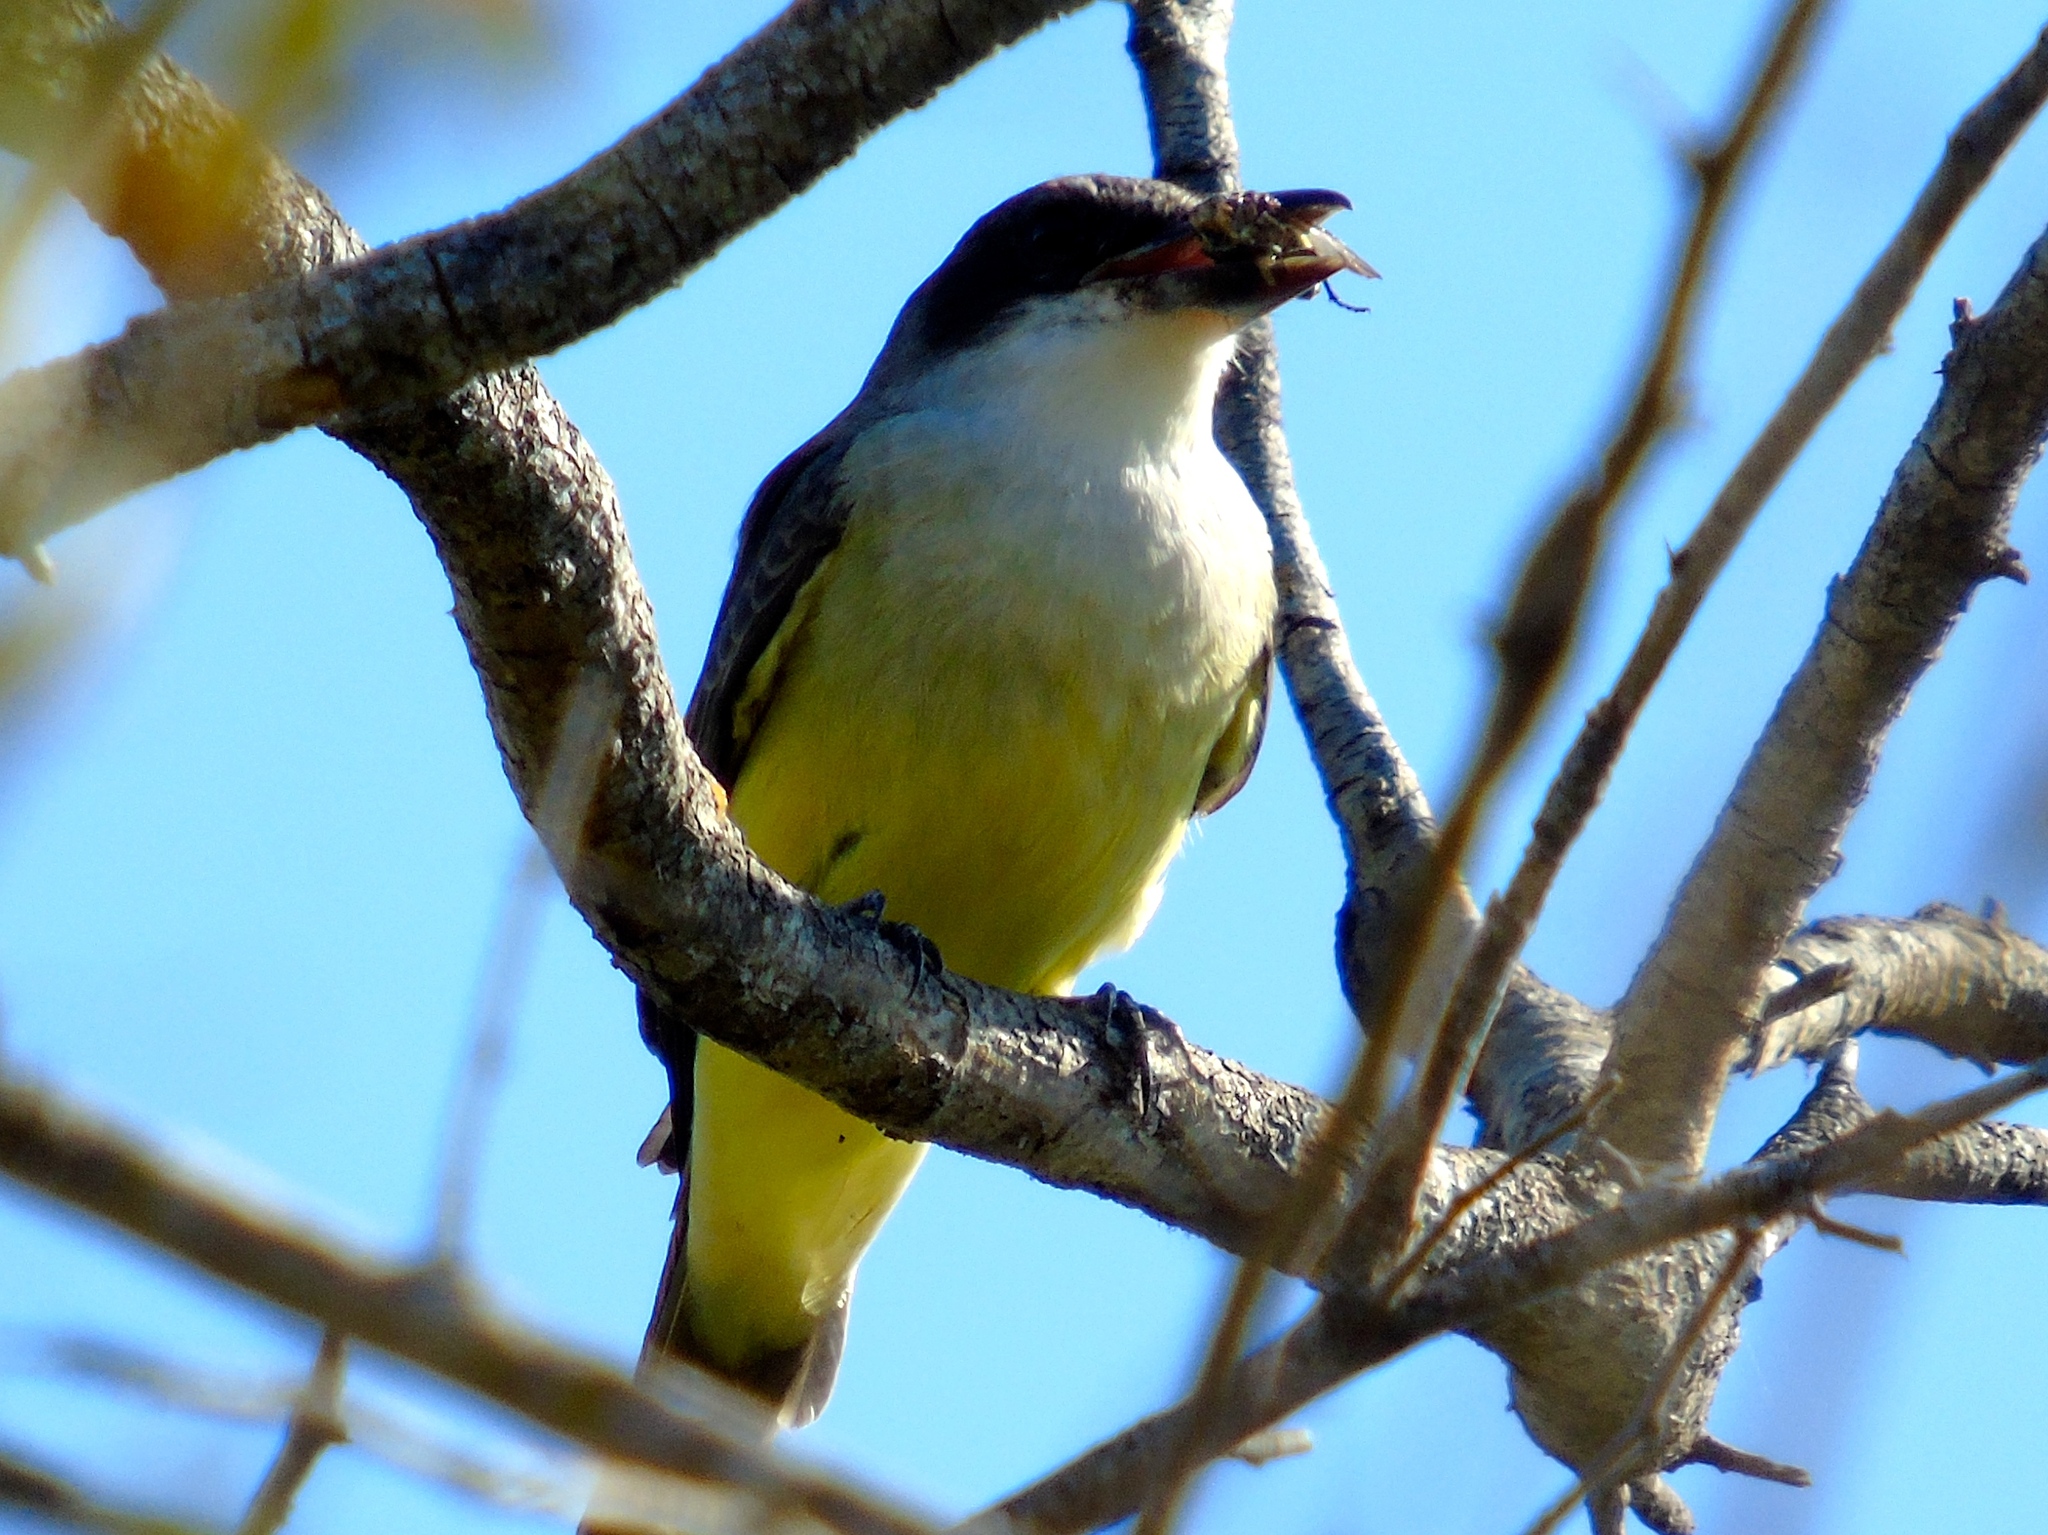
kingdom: Animalia
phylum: Chordata
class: Aves
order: Passeriformes
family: Tyrannidae
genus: Tyrannus
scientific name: Tyrannus crassirostris
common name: Thick-billed kingbird
